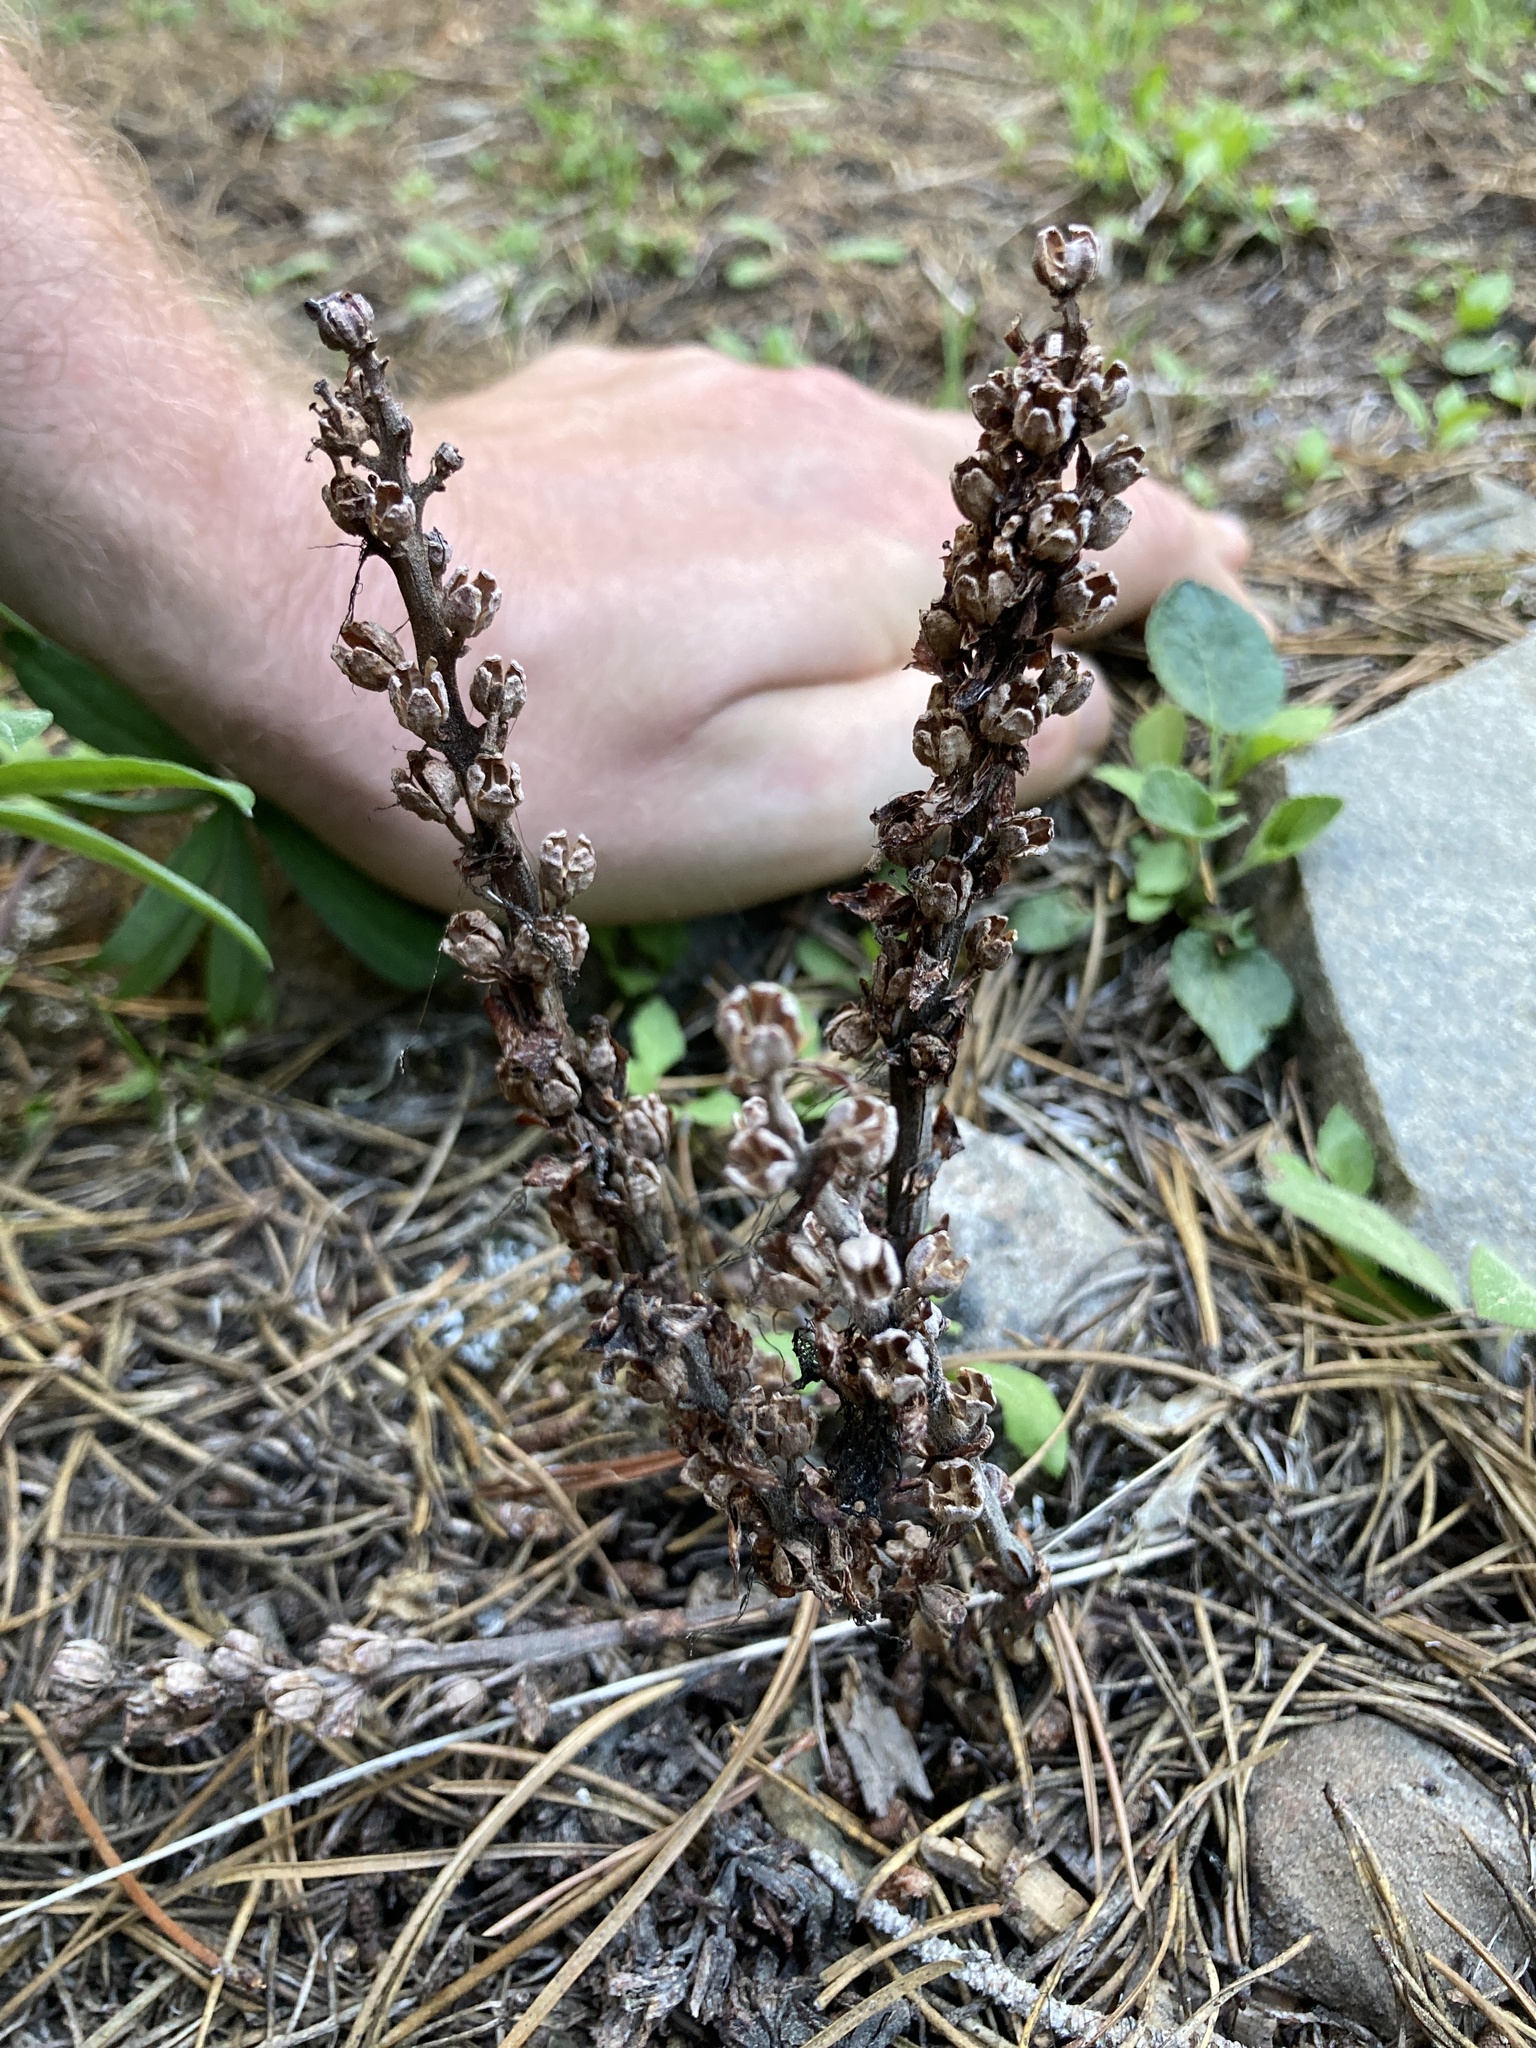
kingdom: Plantae
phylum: Tracheophyta
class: Magnoliopsida
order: Ericales
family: Ericaceae
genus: Allotropa
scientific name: Allotropa virgata
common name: Candy-striped allotropa
